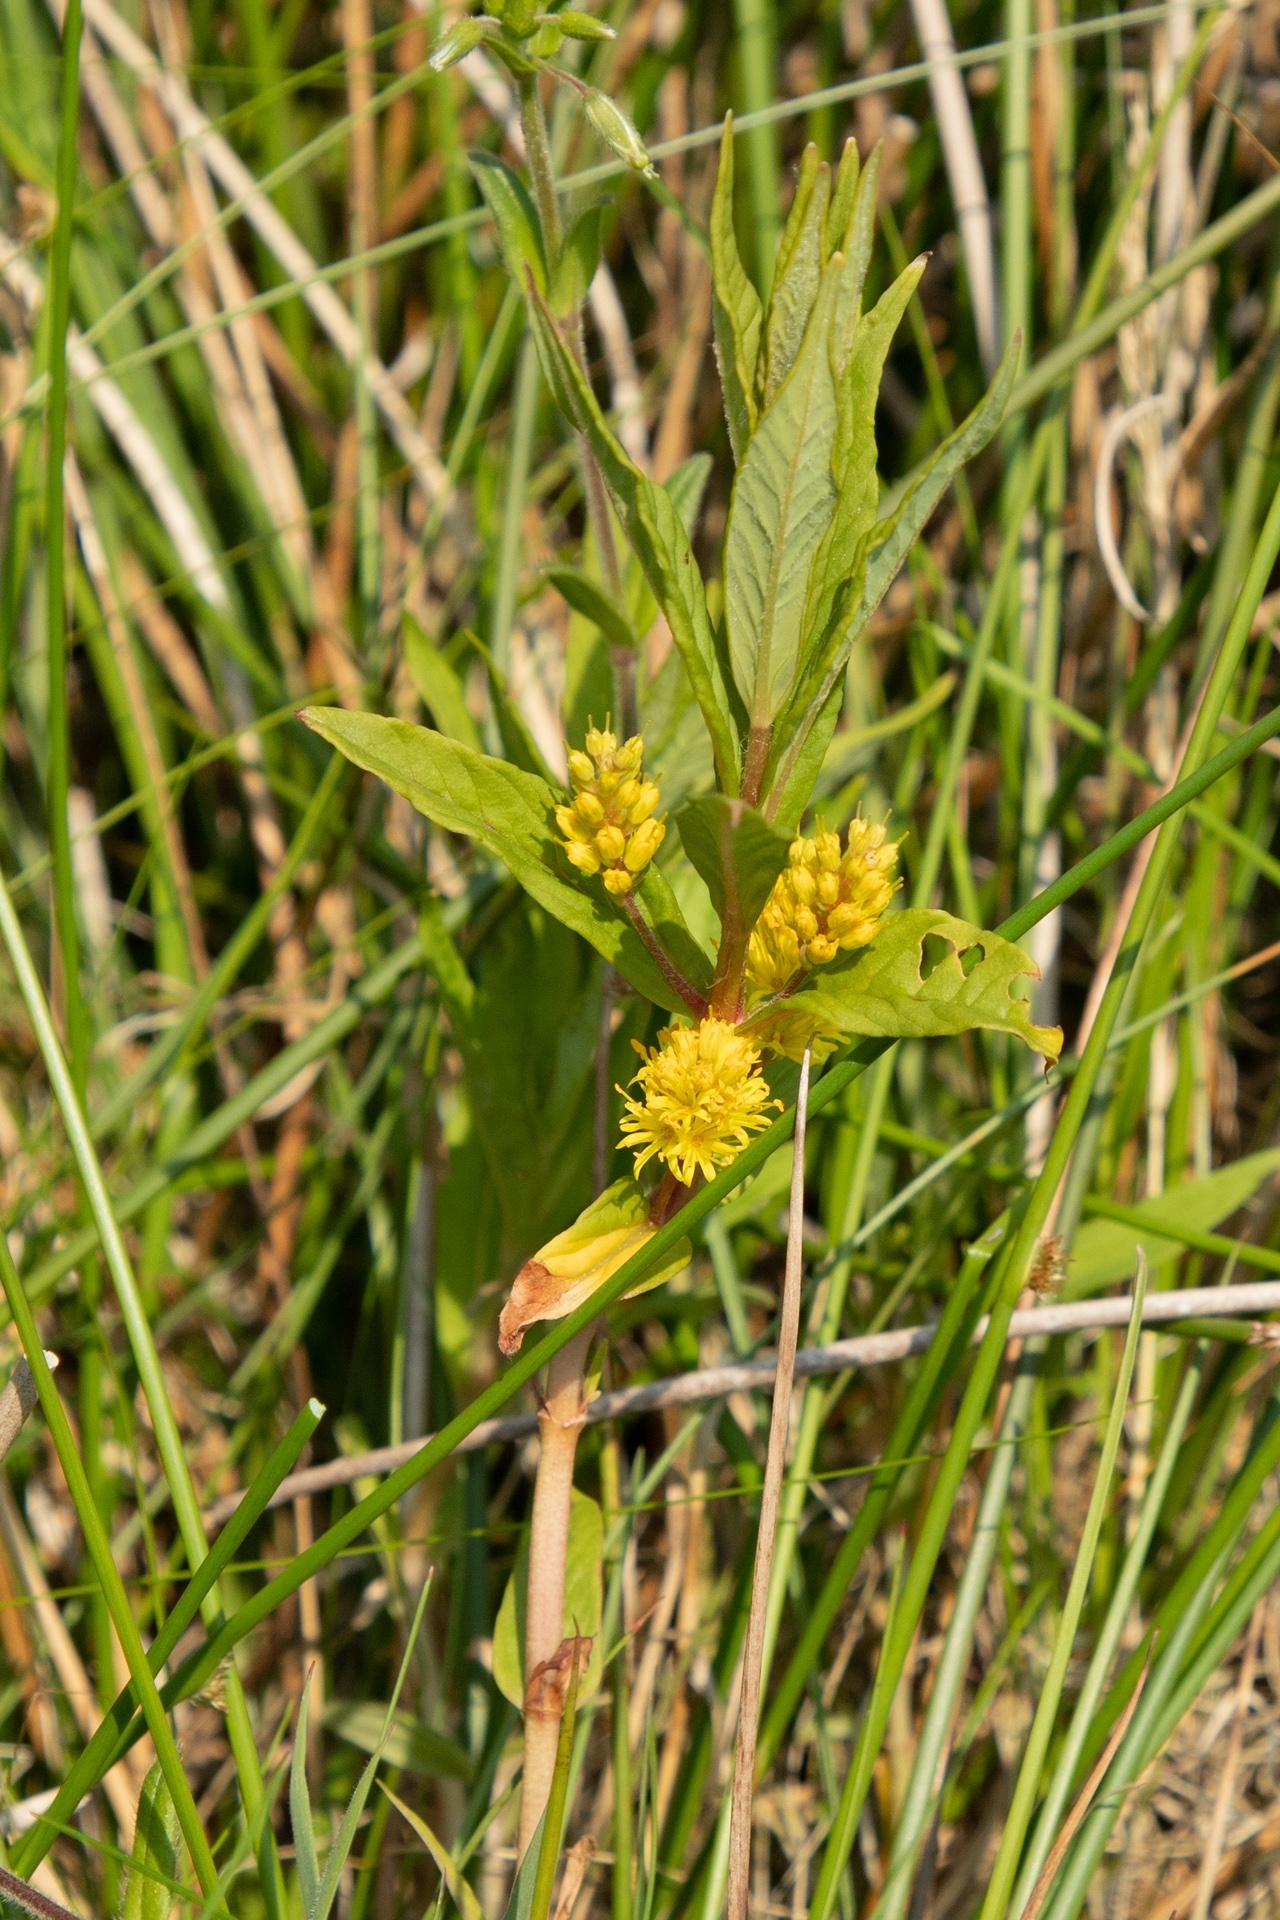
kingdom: Plantae
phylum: Tracheophyta
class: Magnoliopsida
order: Ericales
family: Primulaceae
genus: Lysimachia
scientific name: Lysimachia thyrsiflora
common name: Tufted loosestrife
